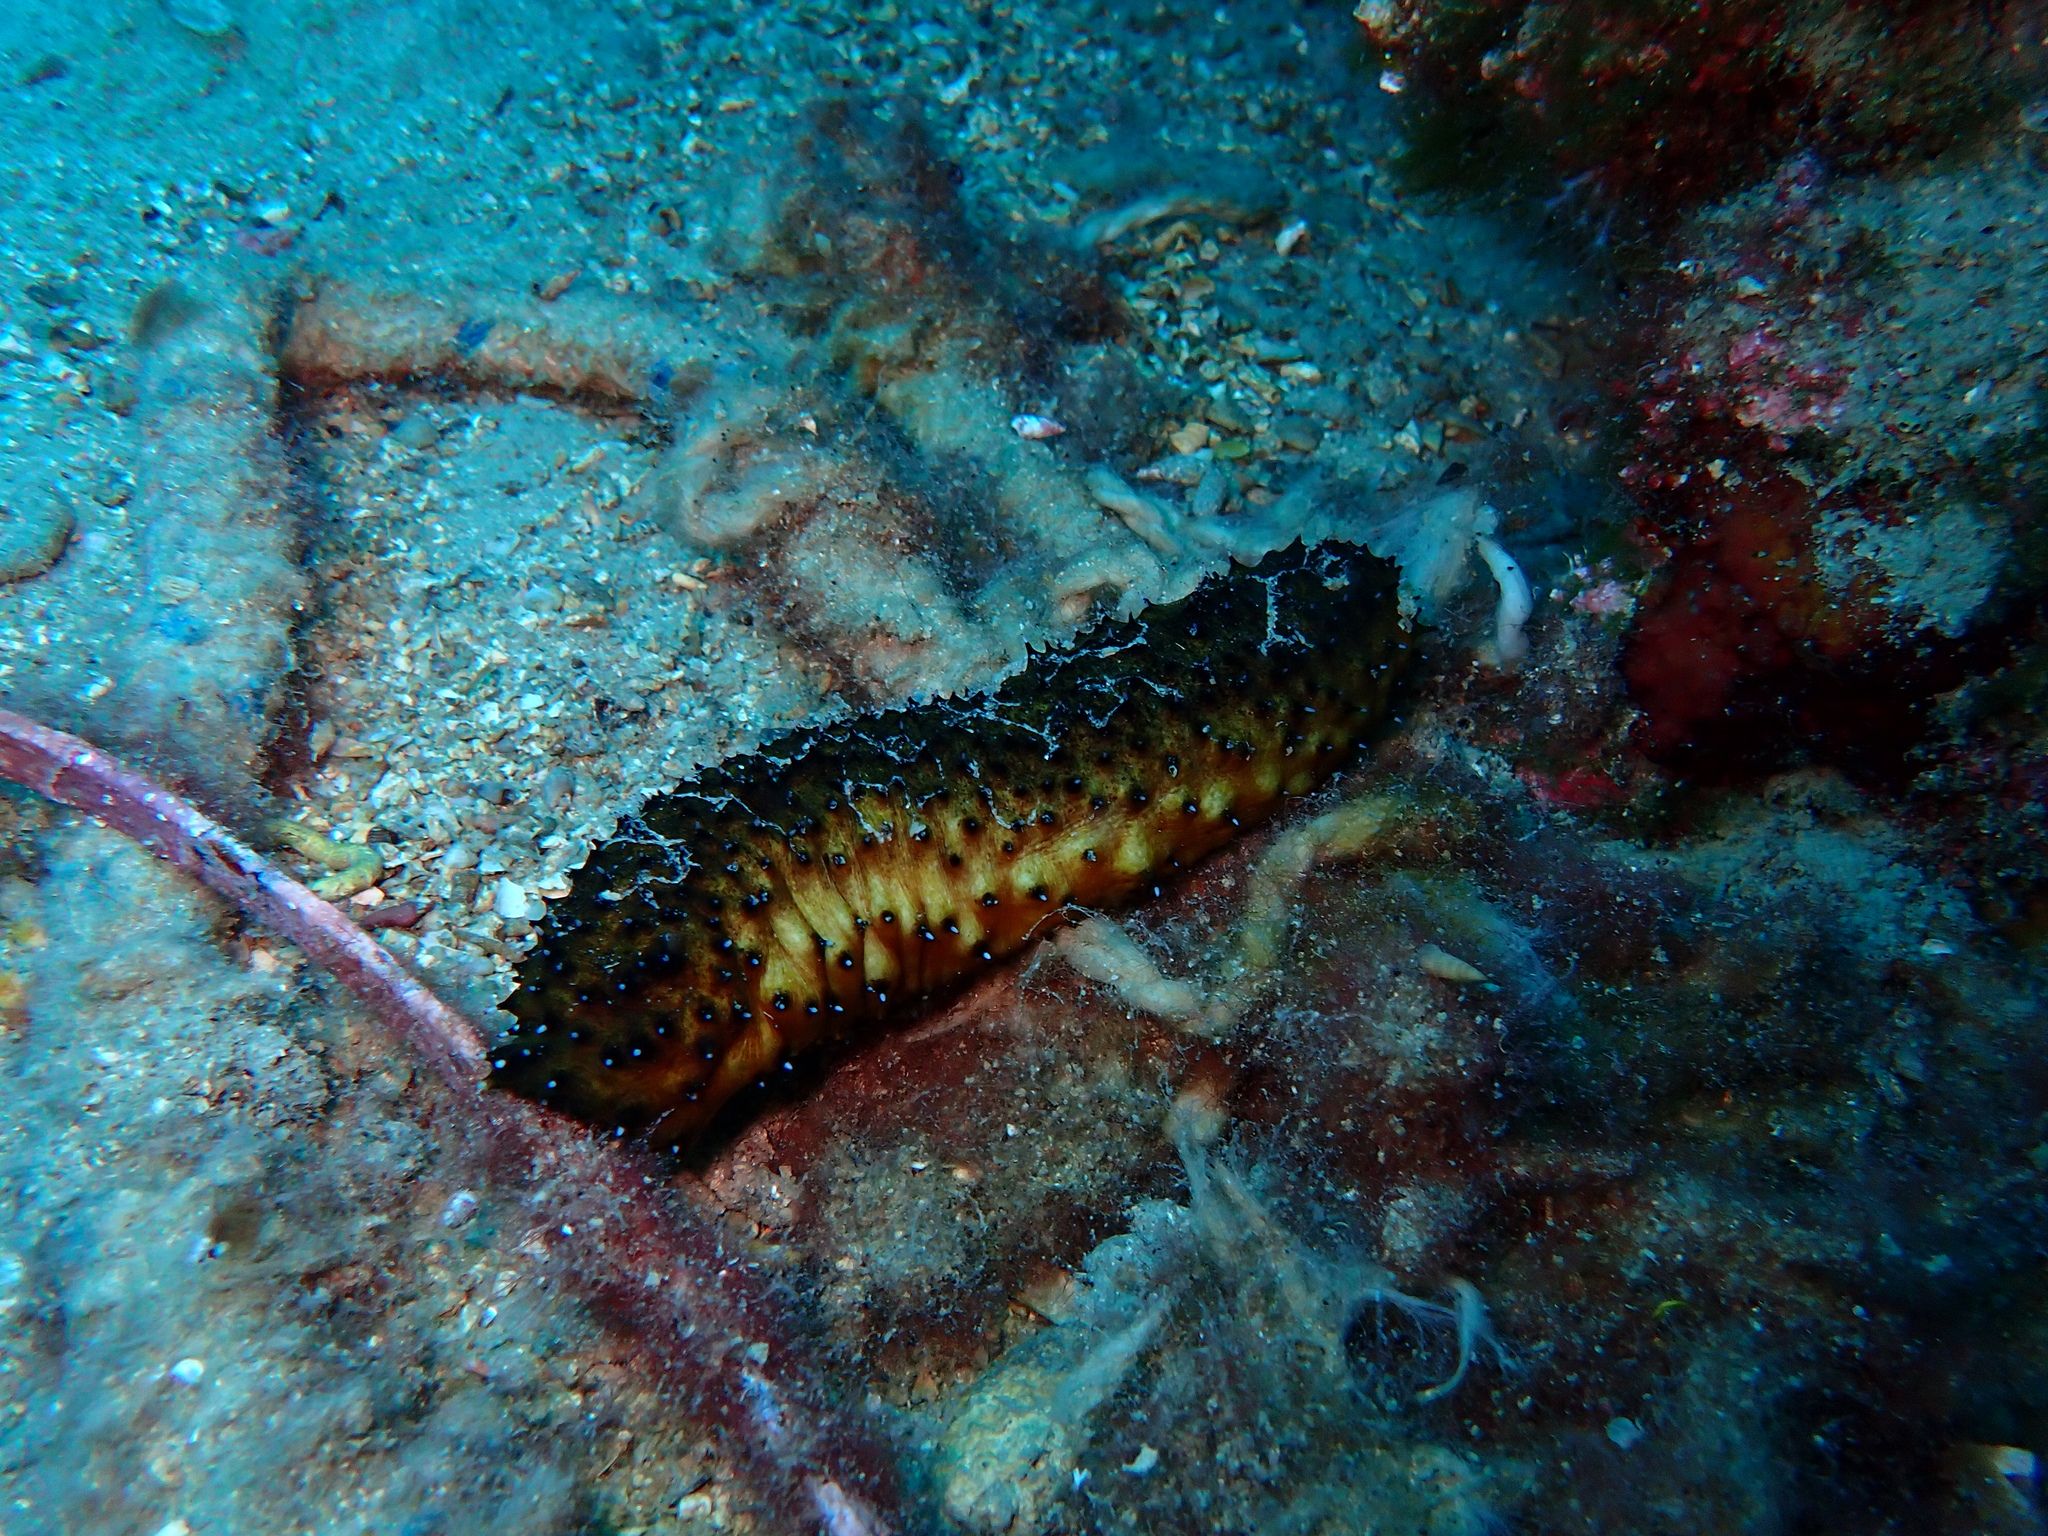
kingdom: Animalia
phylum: Echinodermata
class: Holothuroidea
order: Holothuriida
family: Holothuriidae
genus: Holothuria
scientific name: Holothuria forskali
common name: Black sea cucumber
